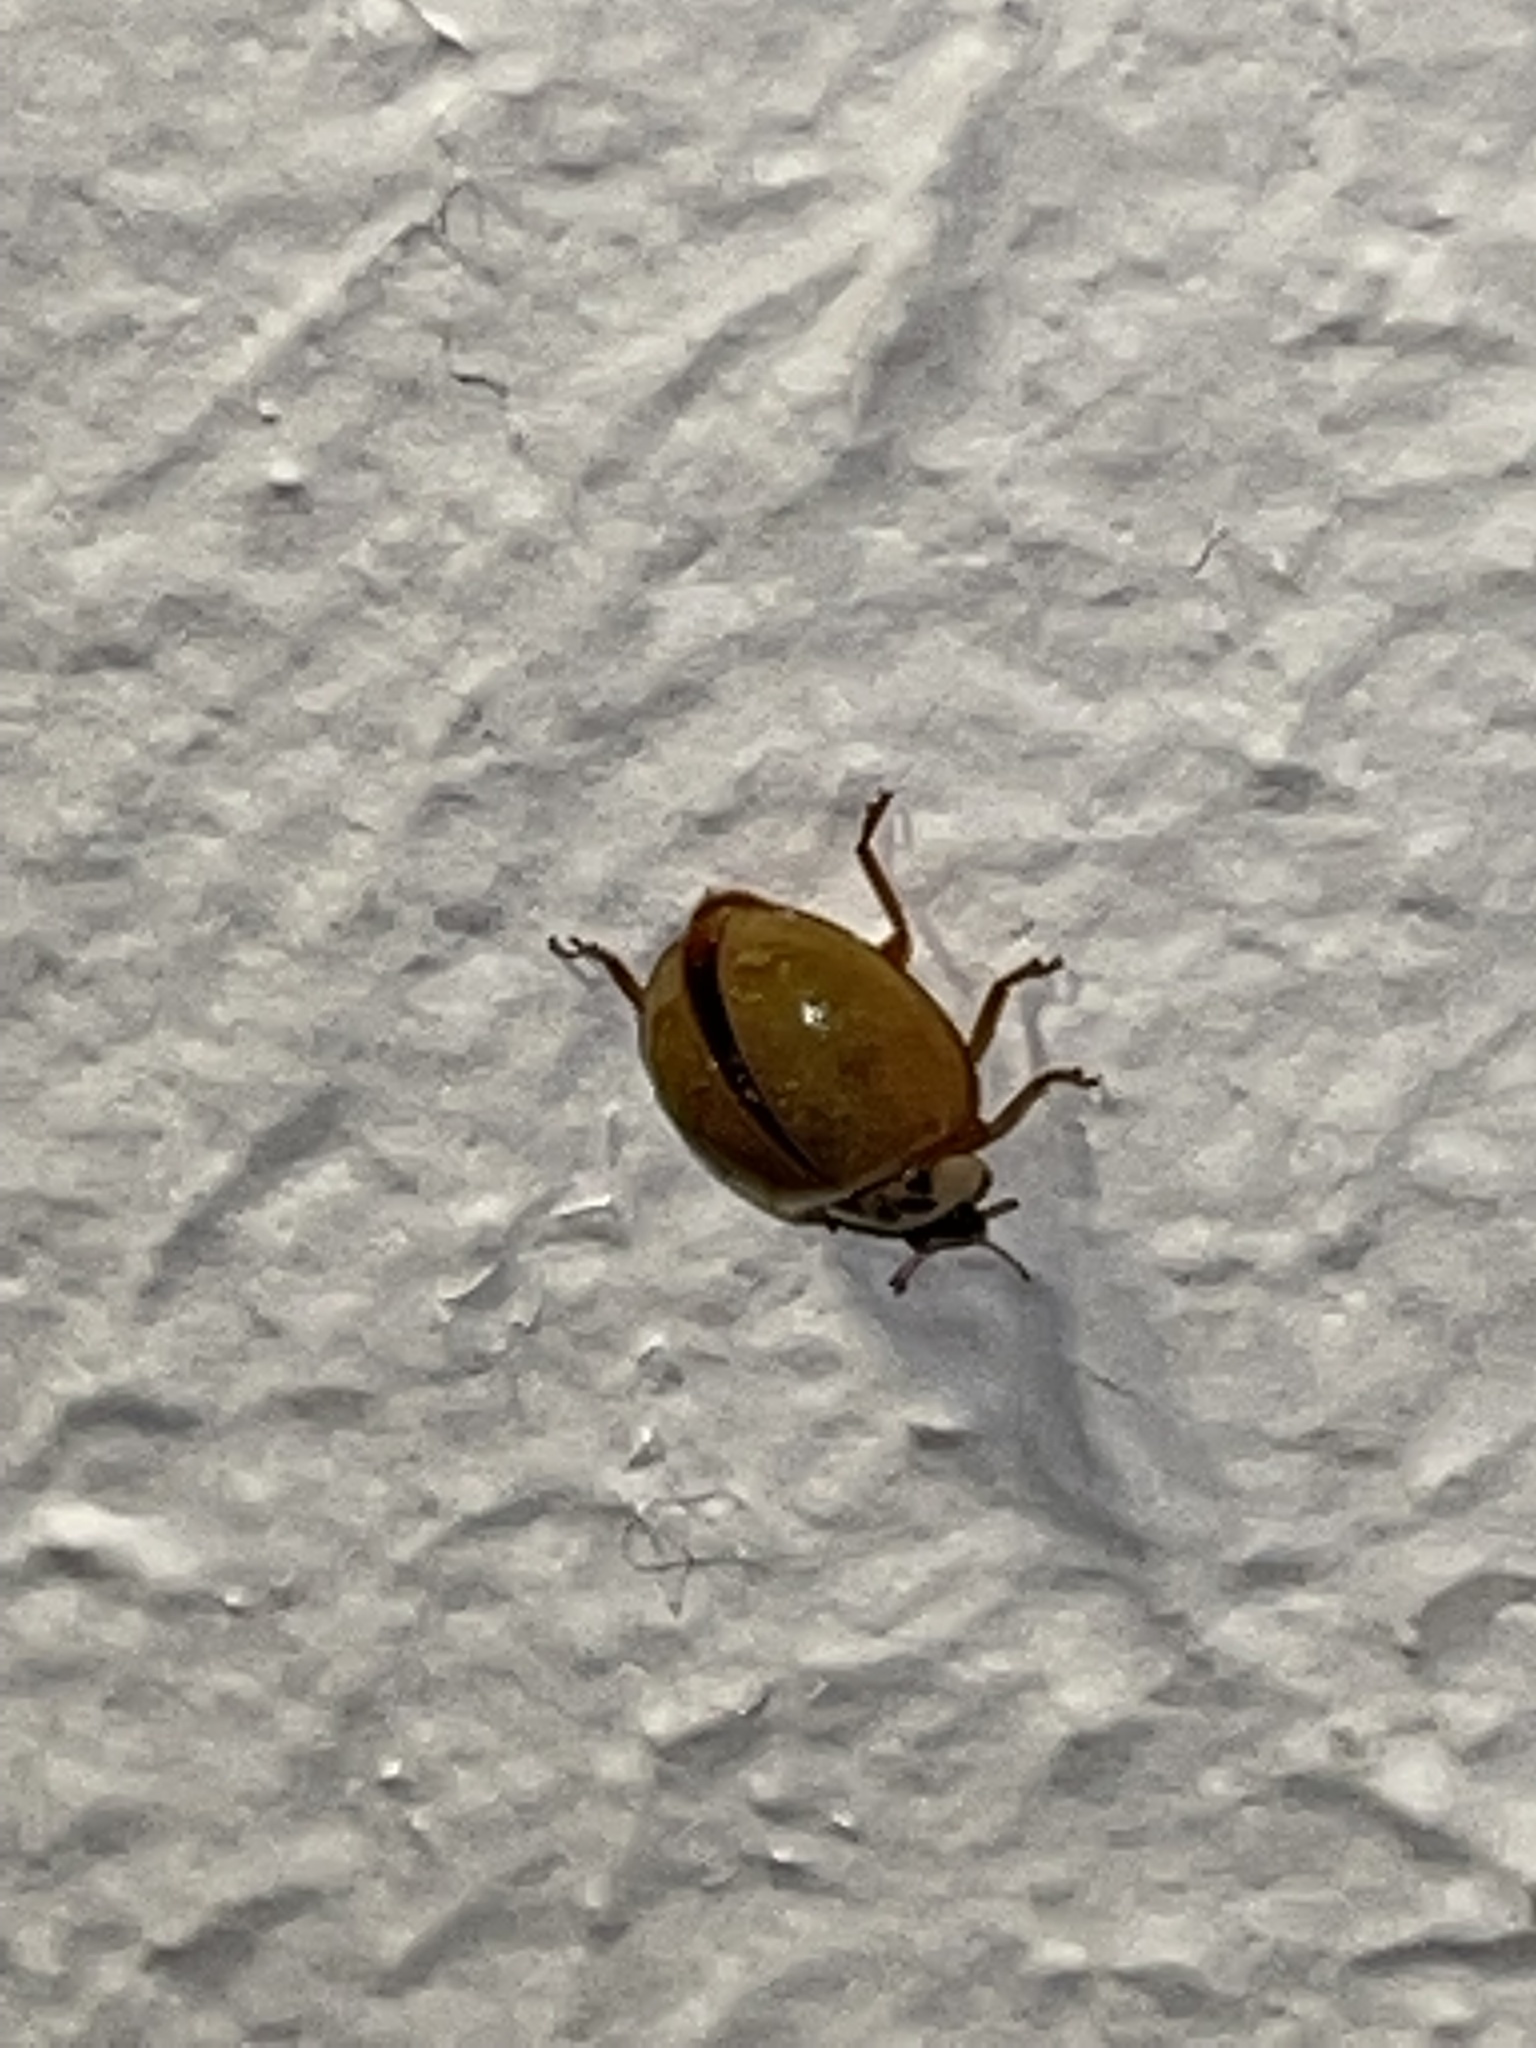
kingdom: Animalia
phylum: Arthropoda
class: Insecta
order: Coleoptera
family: Coccinellidae
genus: Harmonia
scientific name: Harmonia axyridis
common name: Harlequin ladybird
